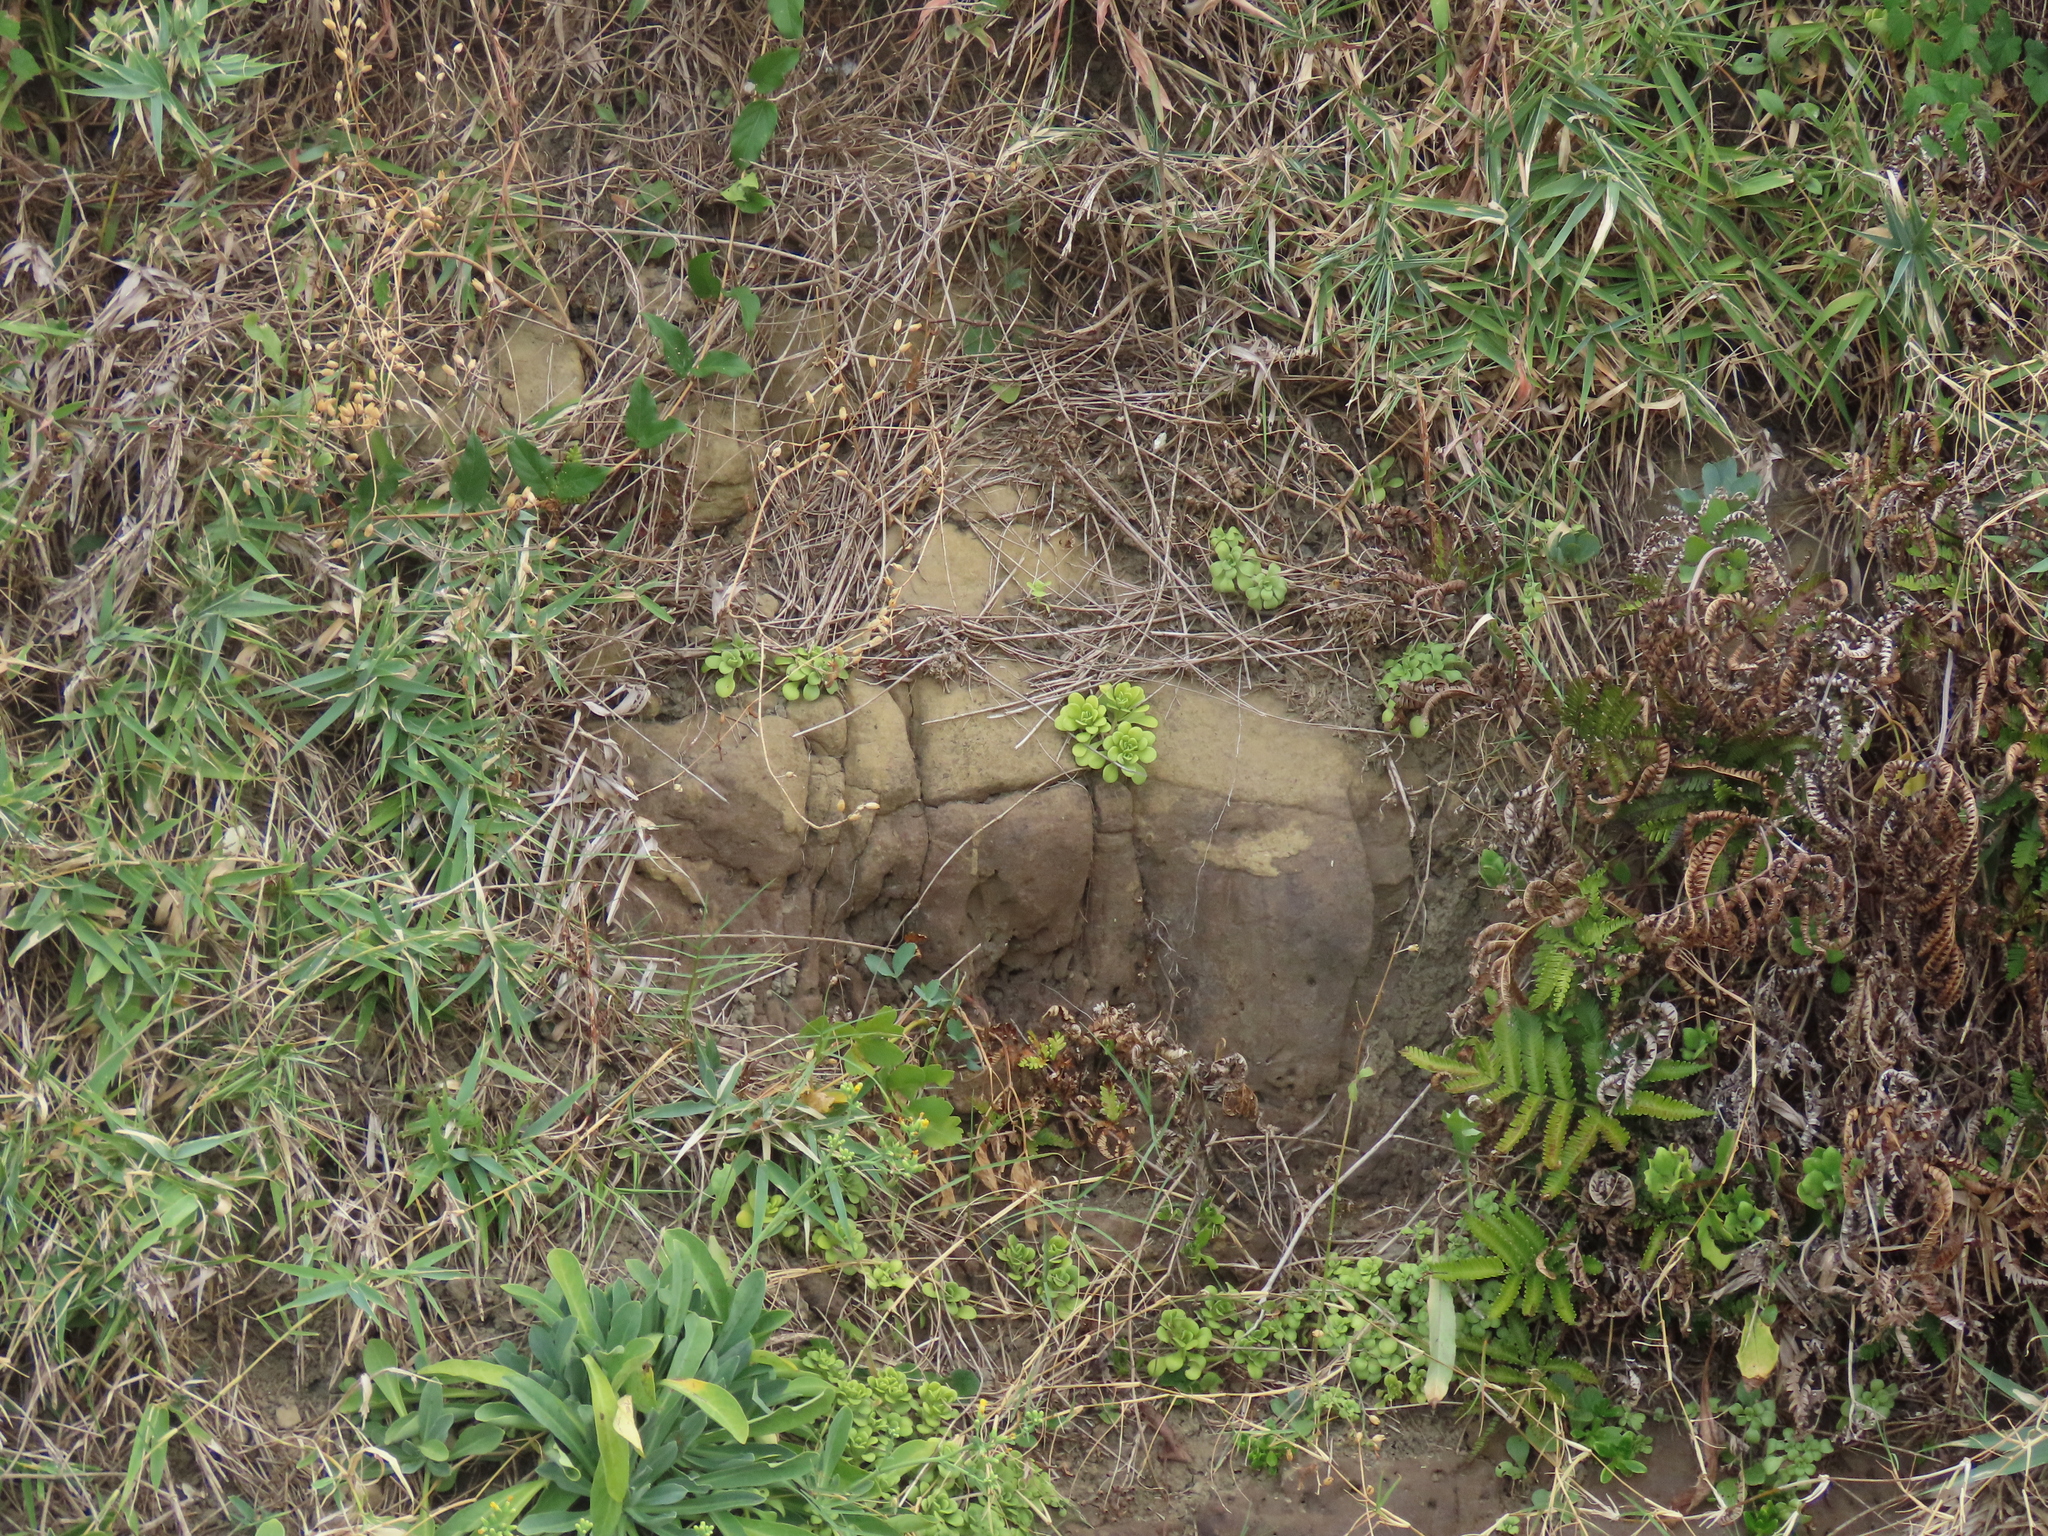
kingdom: Plantae
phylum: Tracheophyta
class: Magnoliopsida
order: Saxifragales
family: Crassulaceae
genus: Sedum
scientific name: Sedum formosanum
